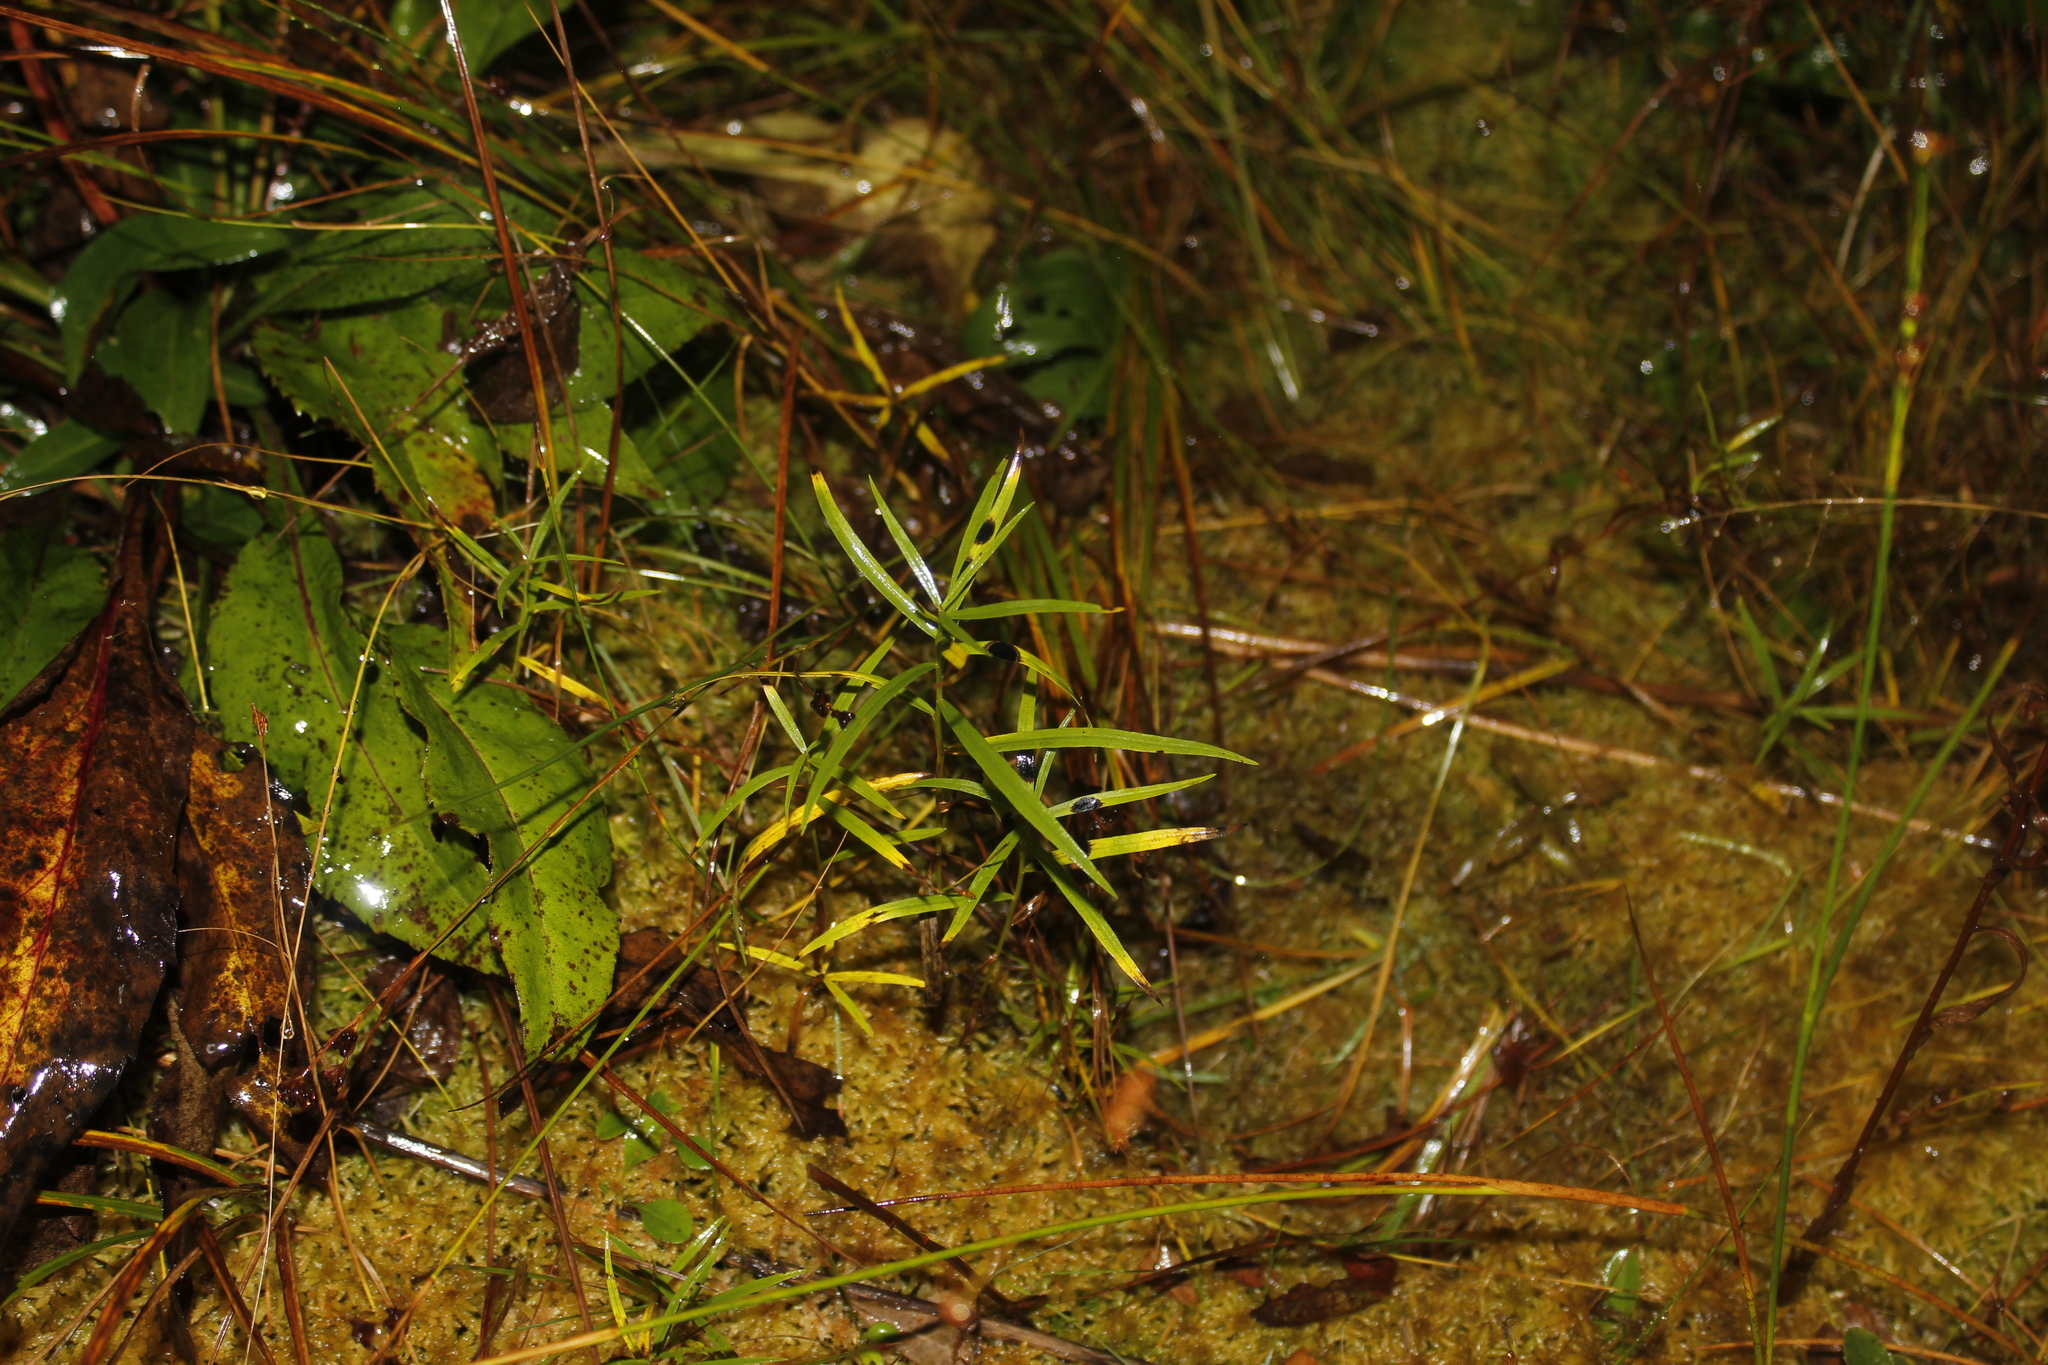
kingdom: Plantae
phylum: Tracheophyta
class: Magnoliopsida
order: Asterales
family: Asteraceae
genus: Euthamia
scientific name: Euthamia graminifolia
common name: Common goldentop
